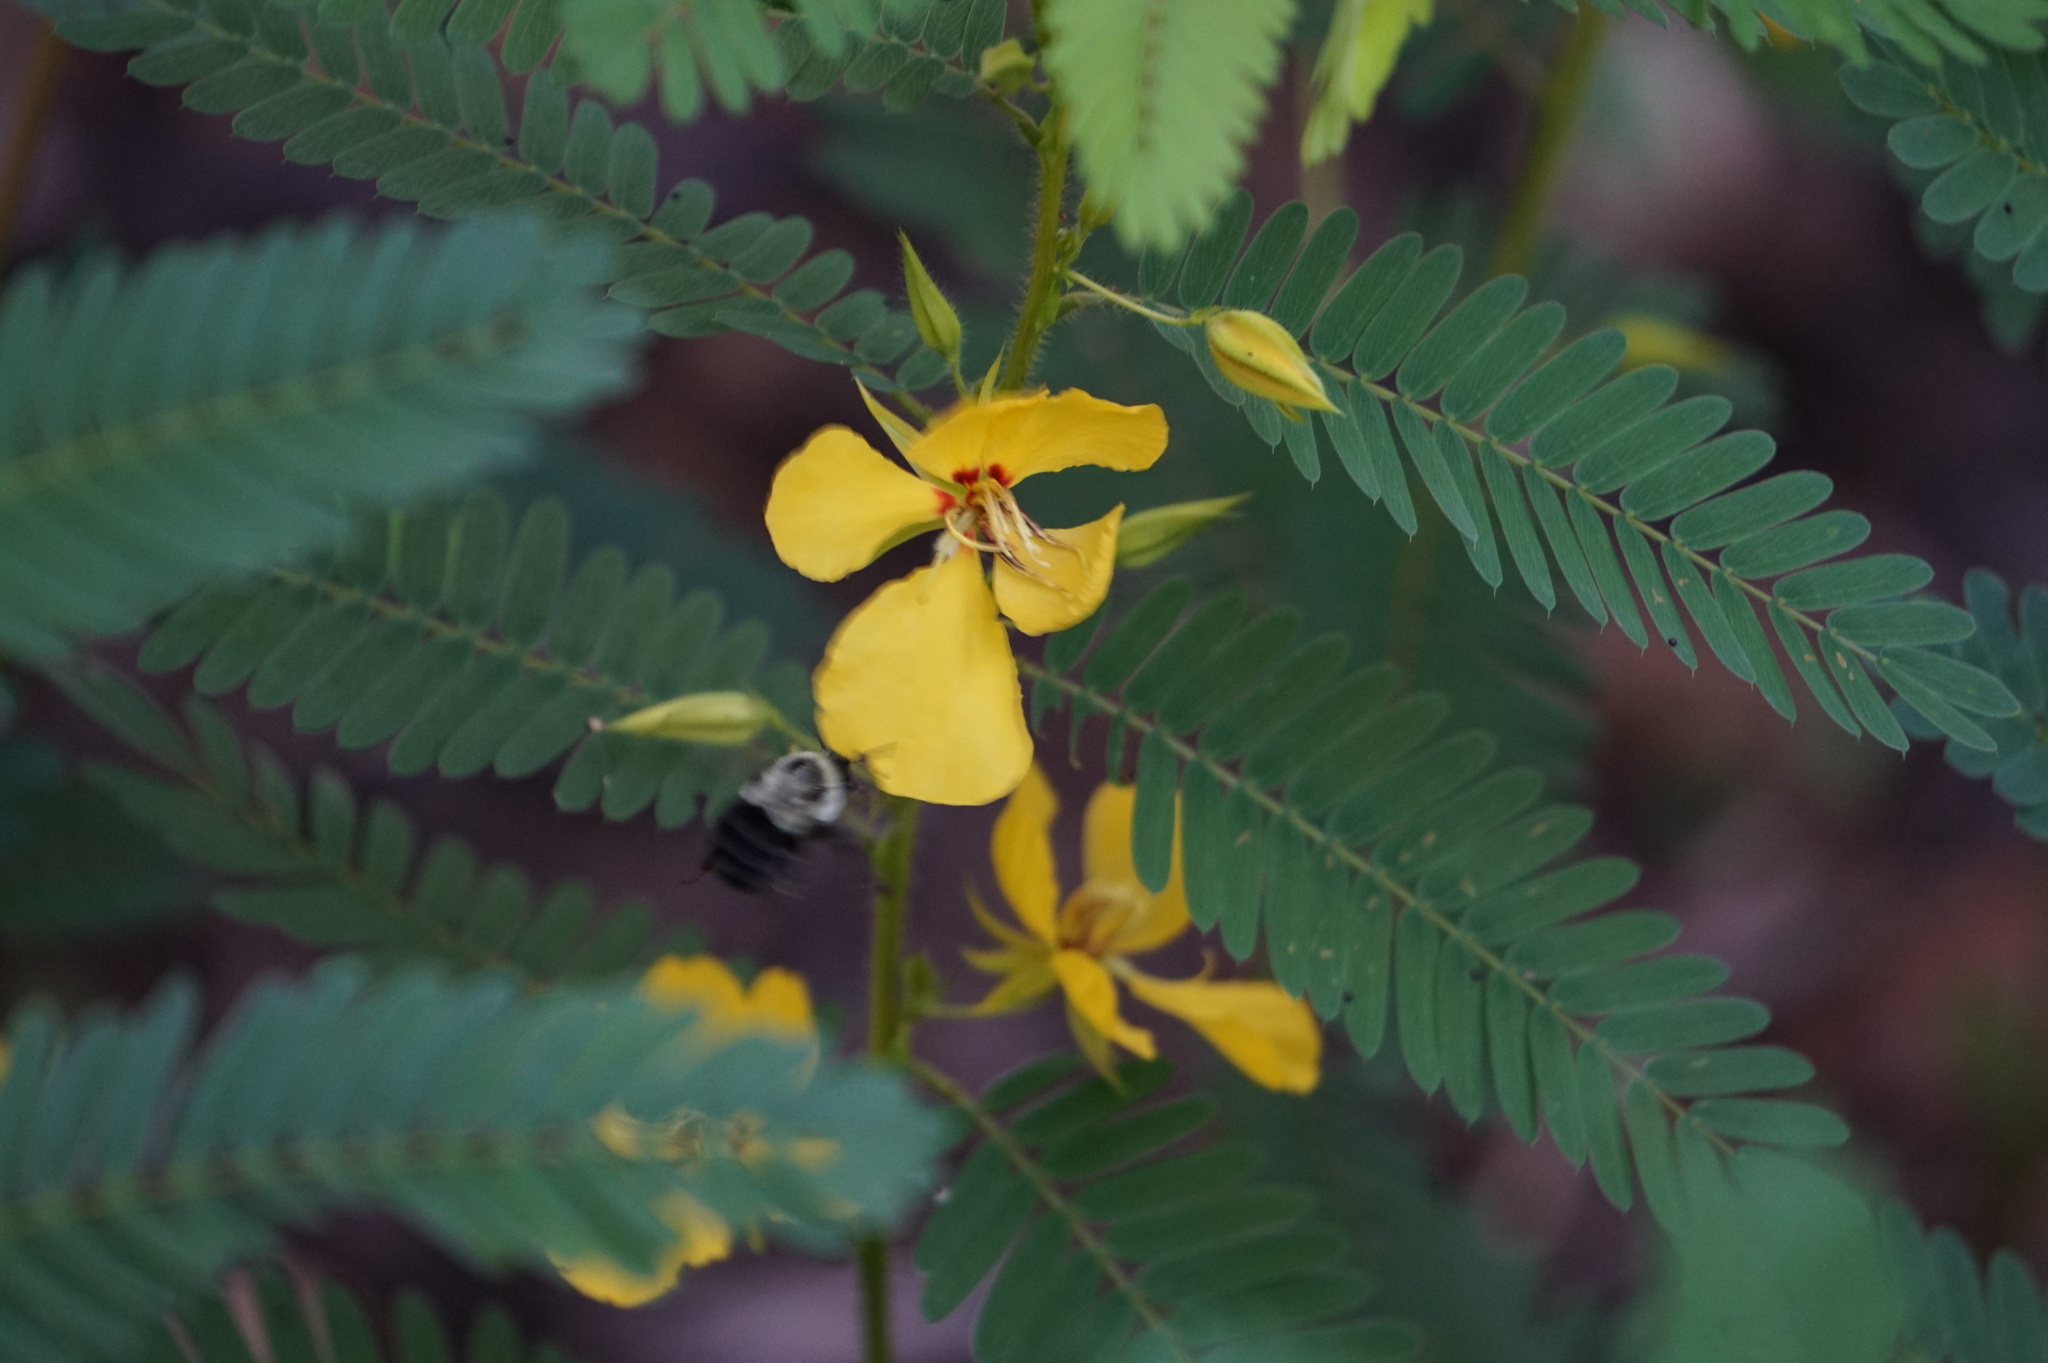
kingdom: Animalia
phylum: Arthropoda
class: Insecta
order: Hymenoptera
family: Apidae
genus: Bombus
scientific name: Bombus impatiens
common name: Common eastern bumble bee
